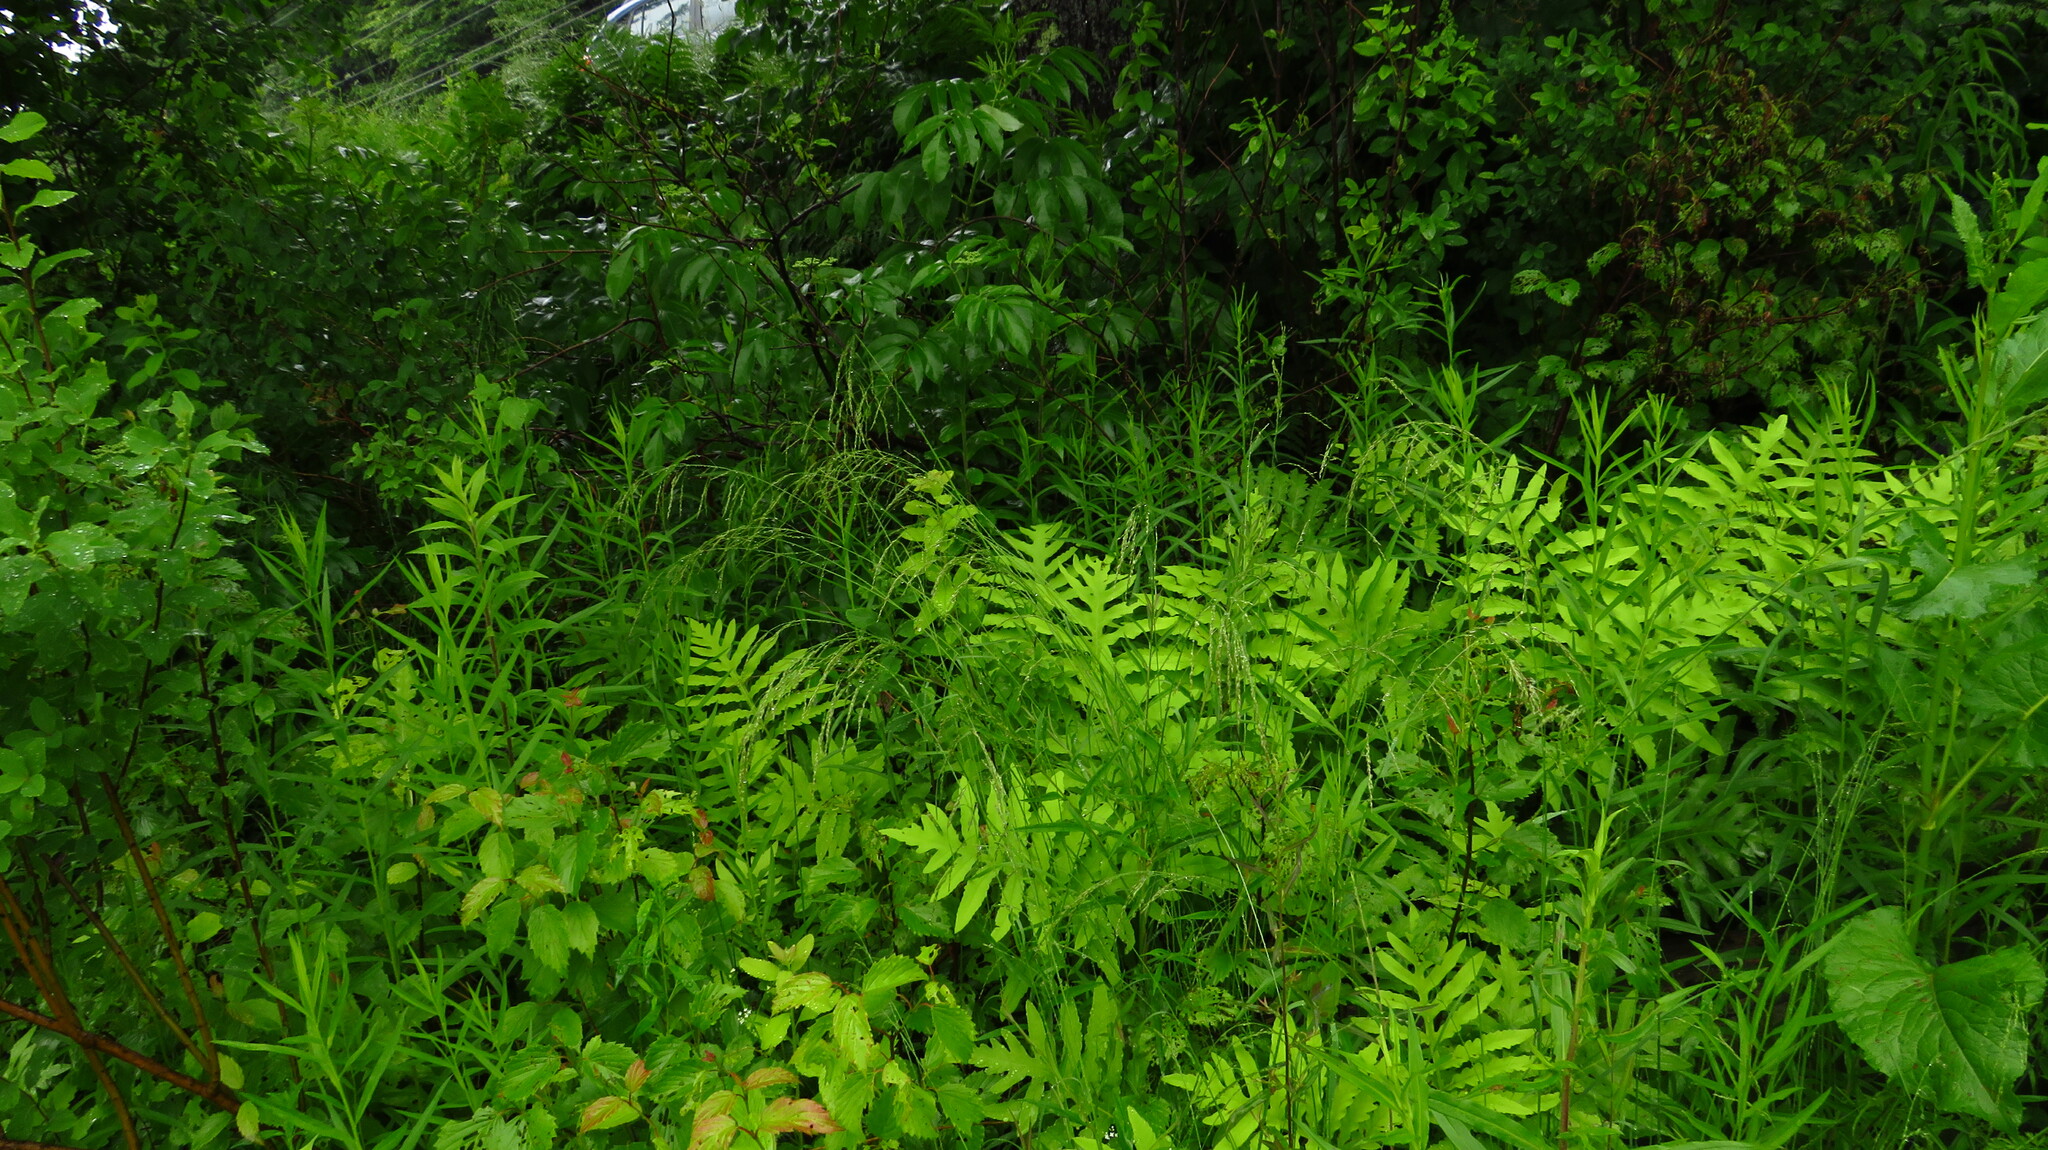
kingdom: Plantae
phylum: Tracheophyta
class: Polypodiopsida
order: Polypodiales
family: Onocleaceae
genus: Onoclea
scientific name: Onoclea sensibilis
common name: Sensitive fern
